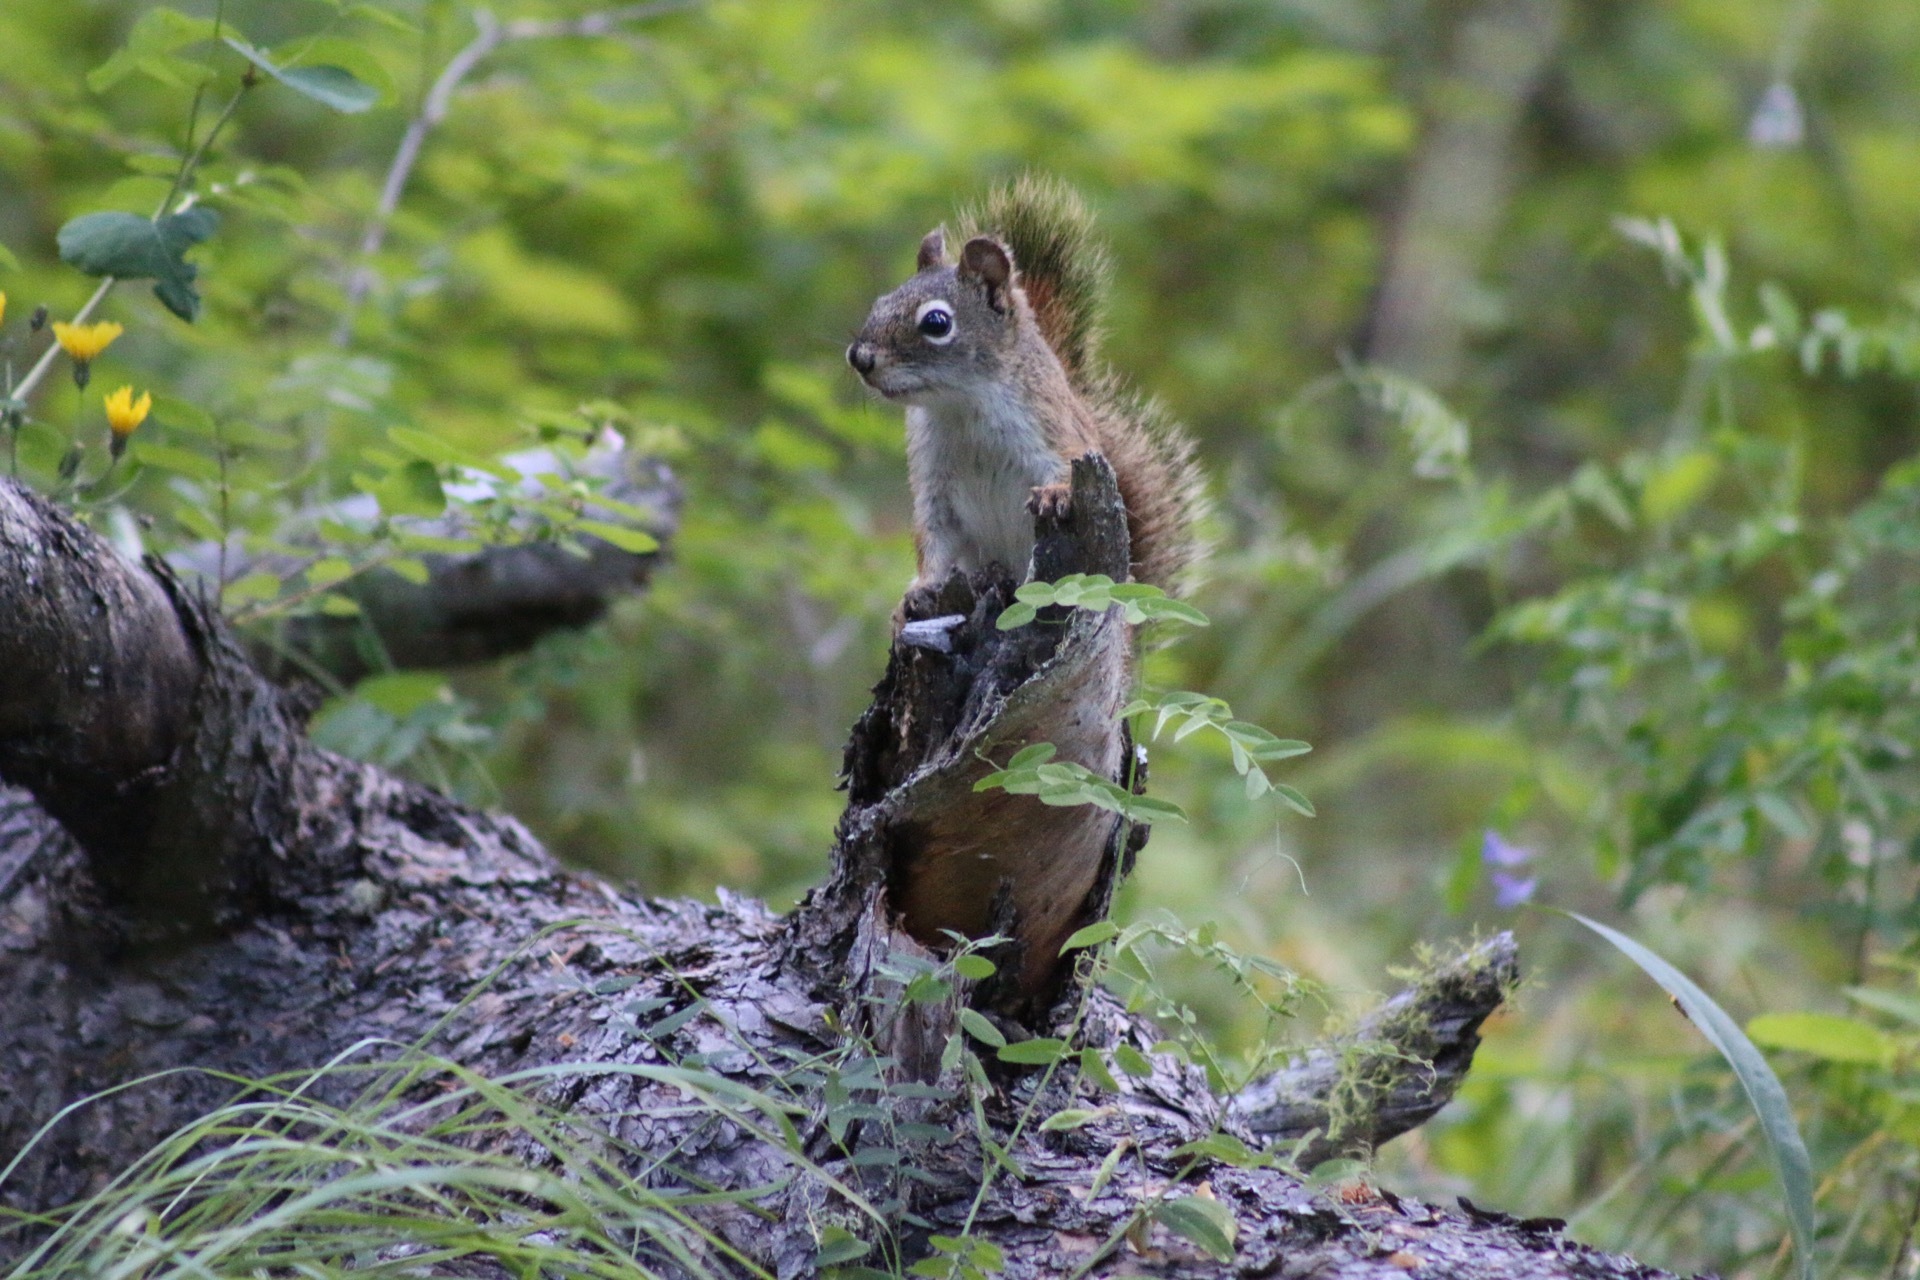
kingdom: Animalia
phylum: Chordata
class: Mammalia
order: Rodentia
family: Sciuridae
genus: Tamiasciurus
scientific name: Tamiasciurus hudsonicus
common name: Red squirrel
